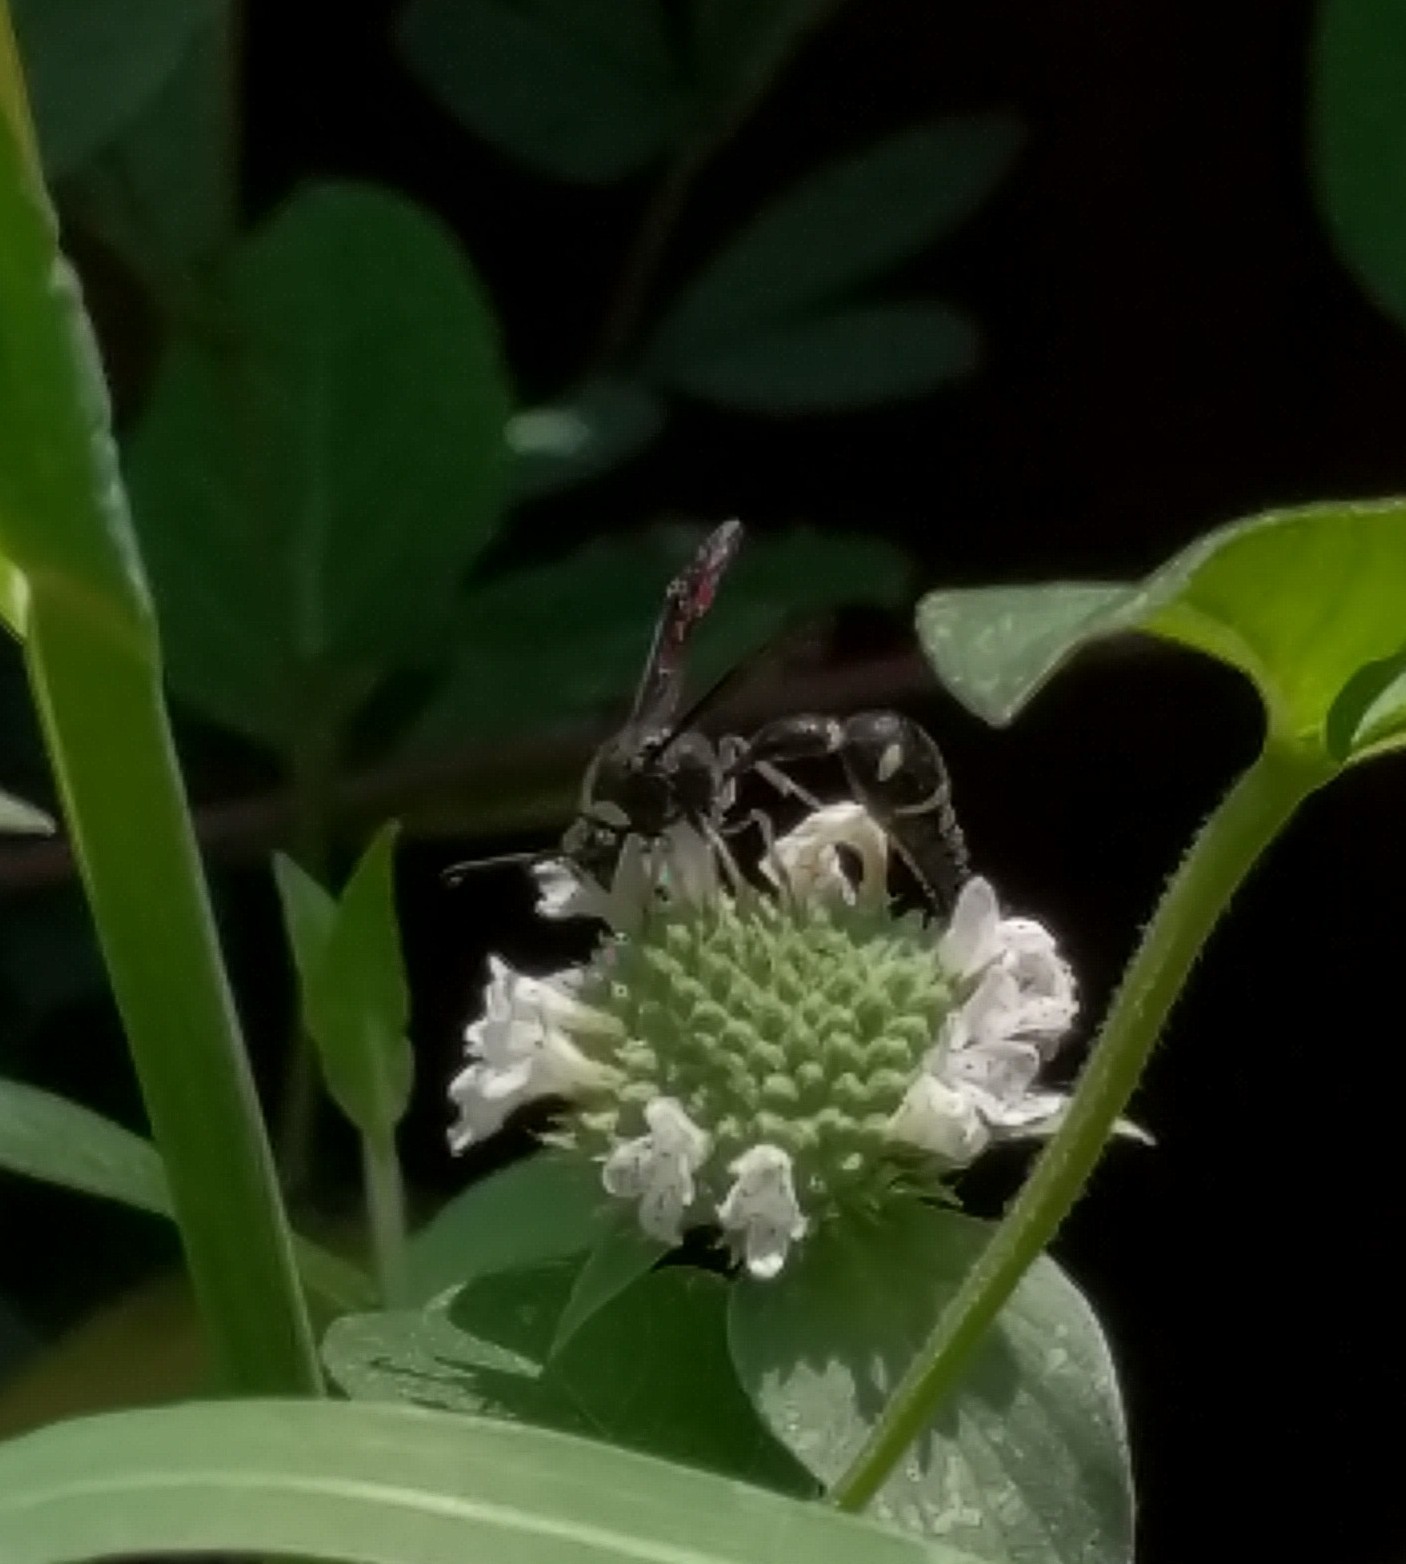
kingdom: Animalia
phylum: Arthropoda
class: Insecta
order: Hymenoptera
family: Vespidae
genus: Eumenes
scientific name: Eumenes fraternus
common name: Fraternal potter wasp
